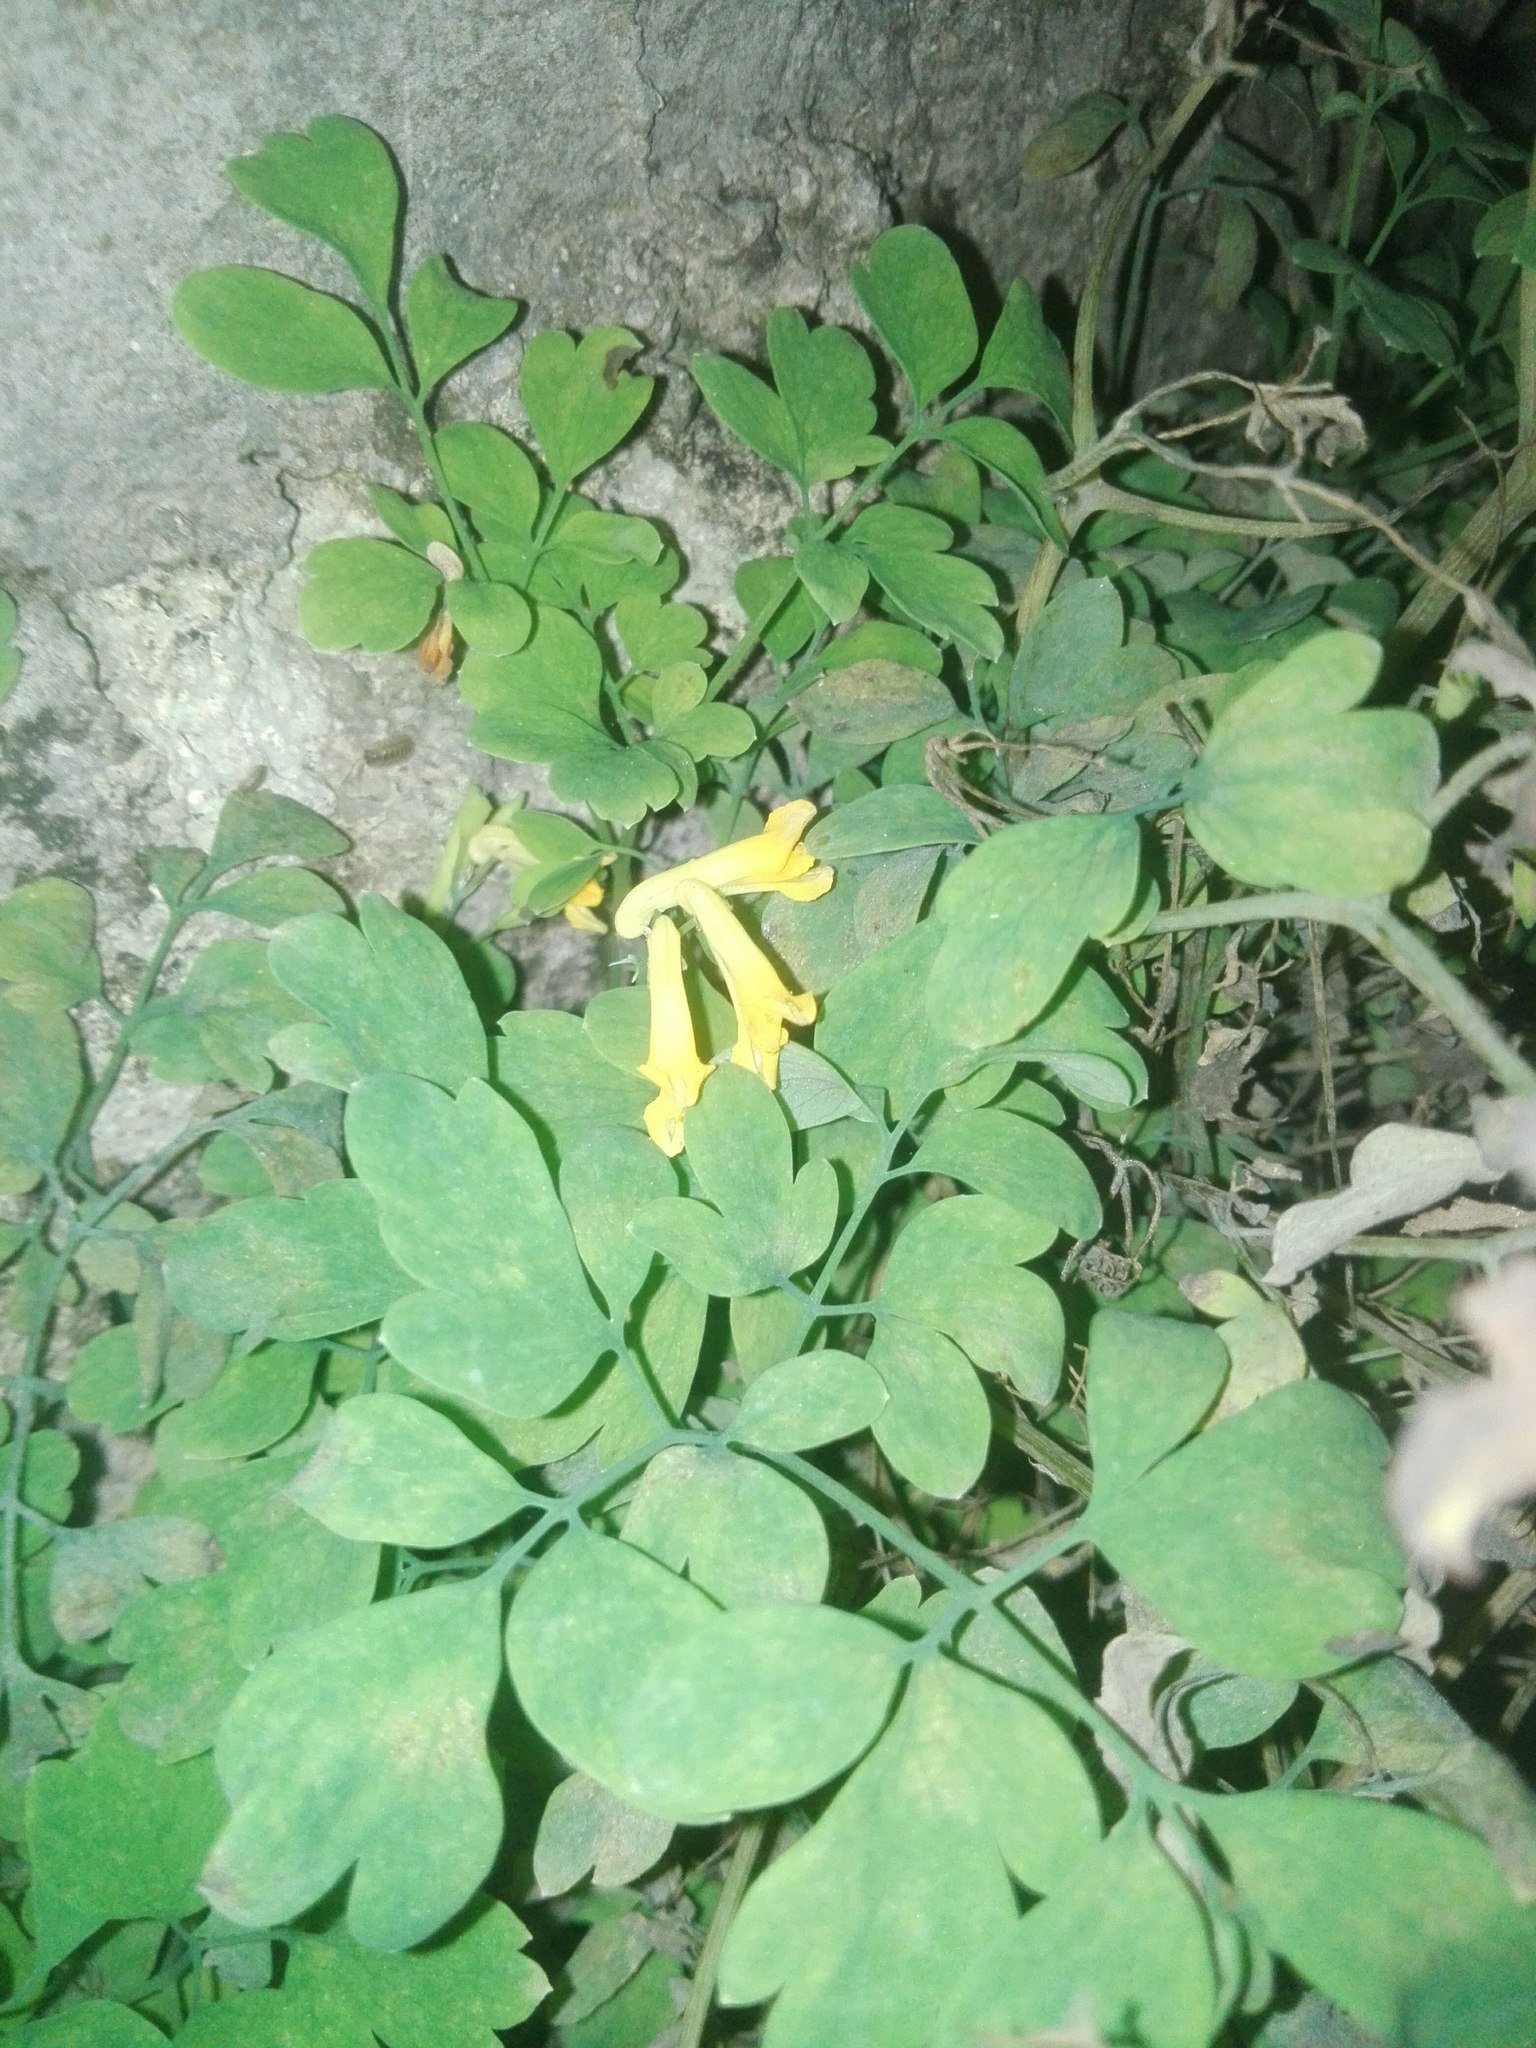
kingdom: Plantae
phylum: Tracheophyta
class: Magnoliopsida
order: Ranunculales
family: Papaveraceae
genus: Pseudofumaria
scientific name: Pseudofumaria lutea
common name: Yellow corydalis
